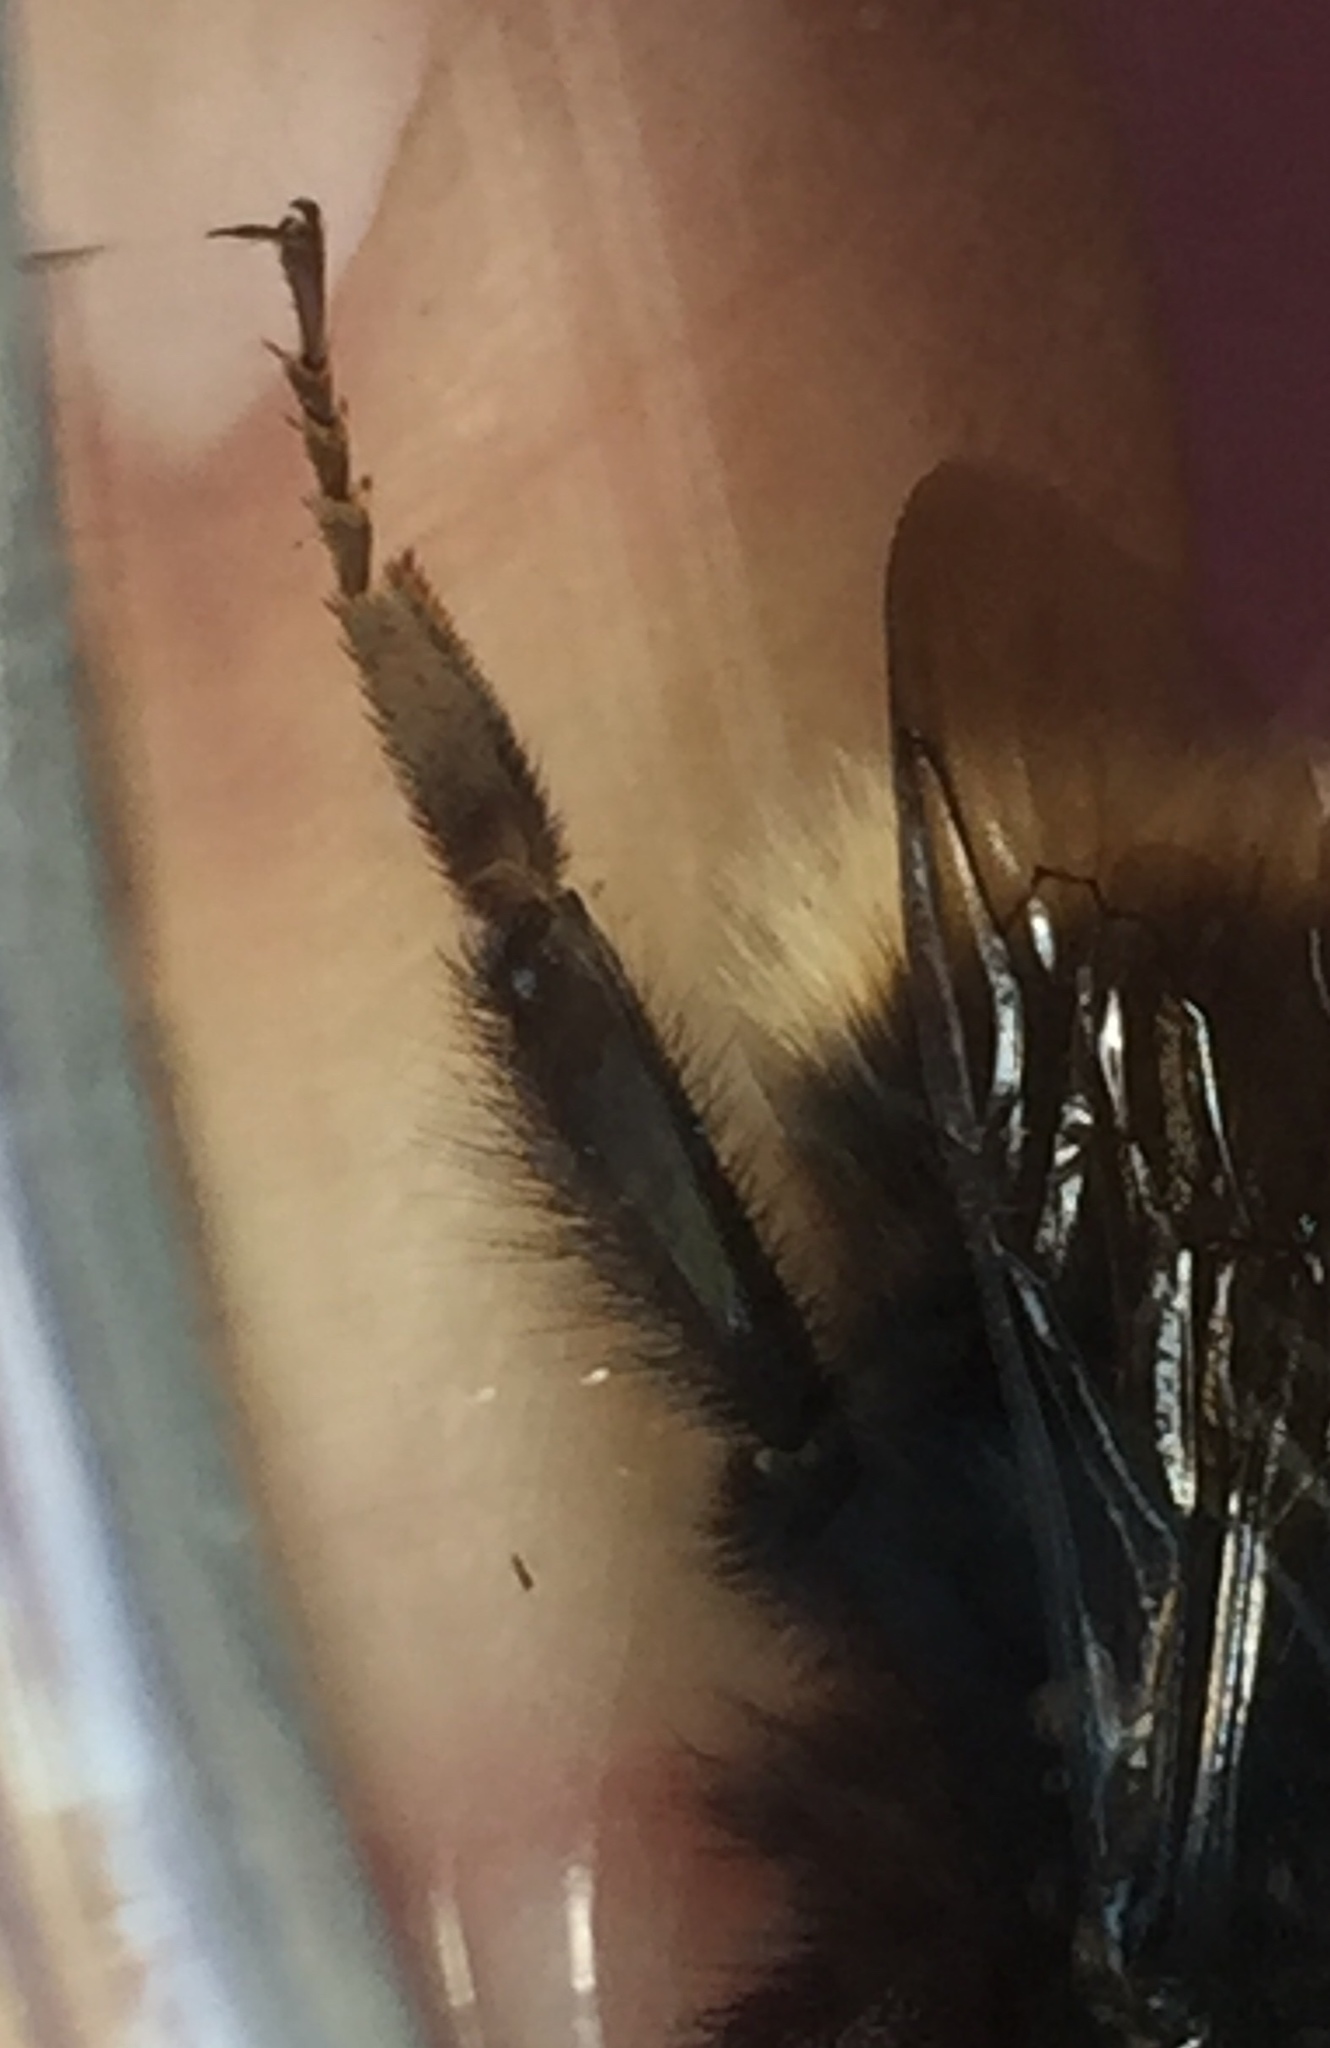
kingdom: Animalia
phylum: Arthropoda
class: Insecta
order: Hymenoptera
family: Apidae
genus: Bombus
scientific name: Bombus terrestris
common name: Buff-tailed bumblebee
